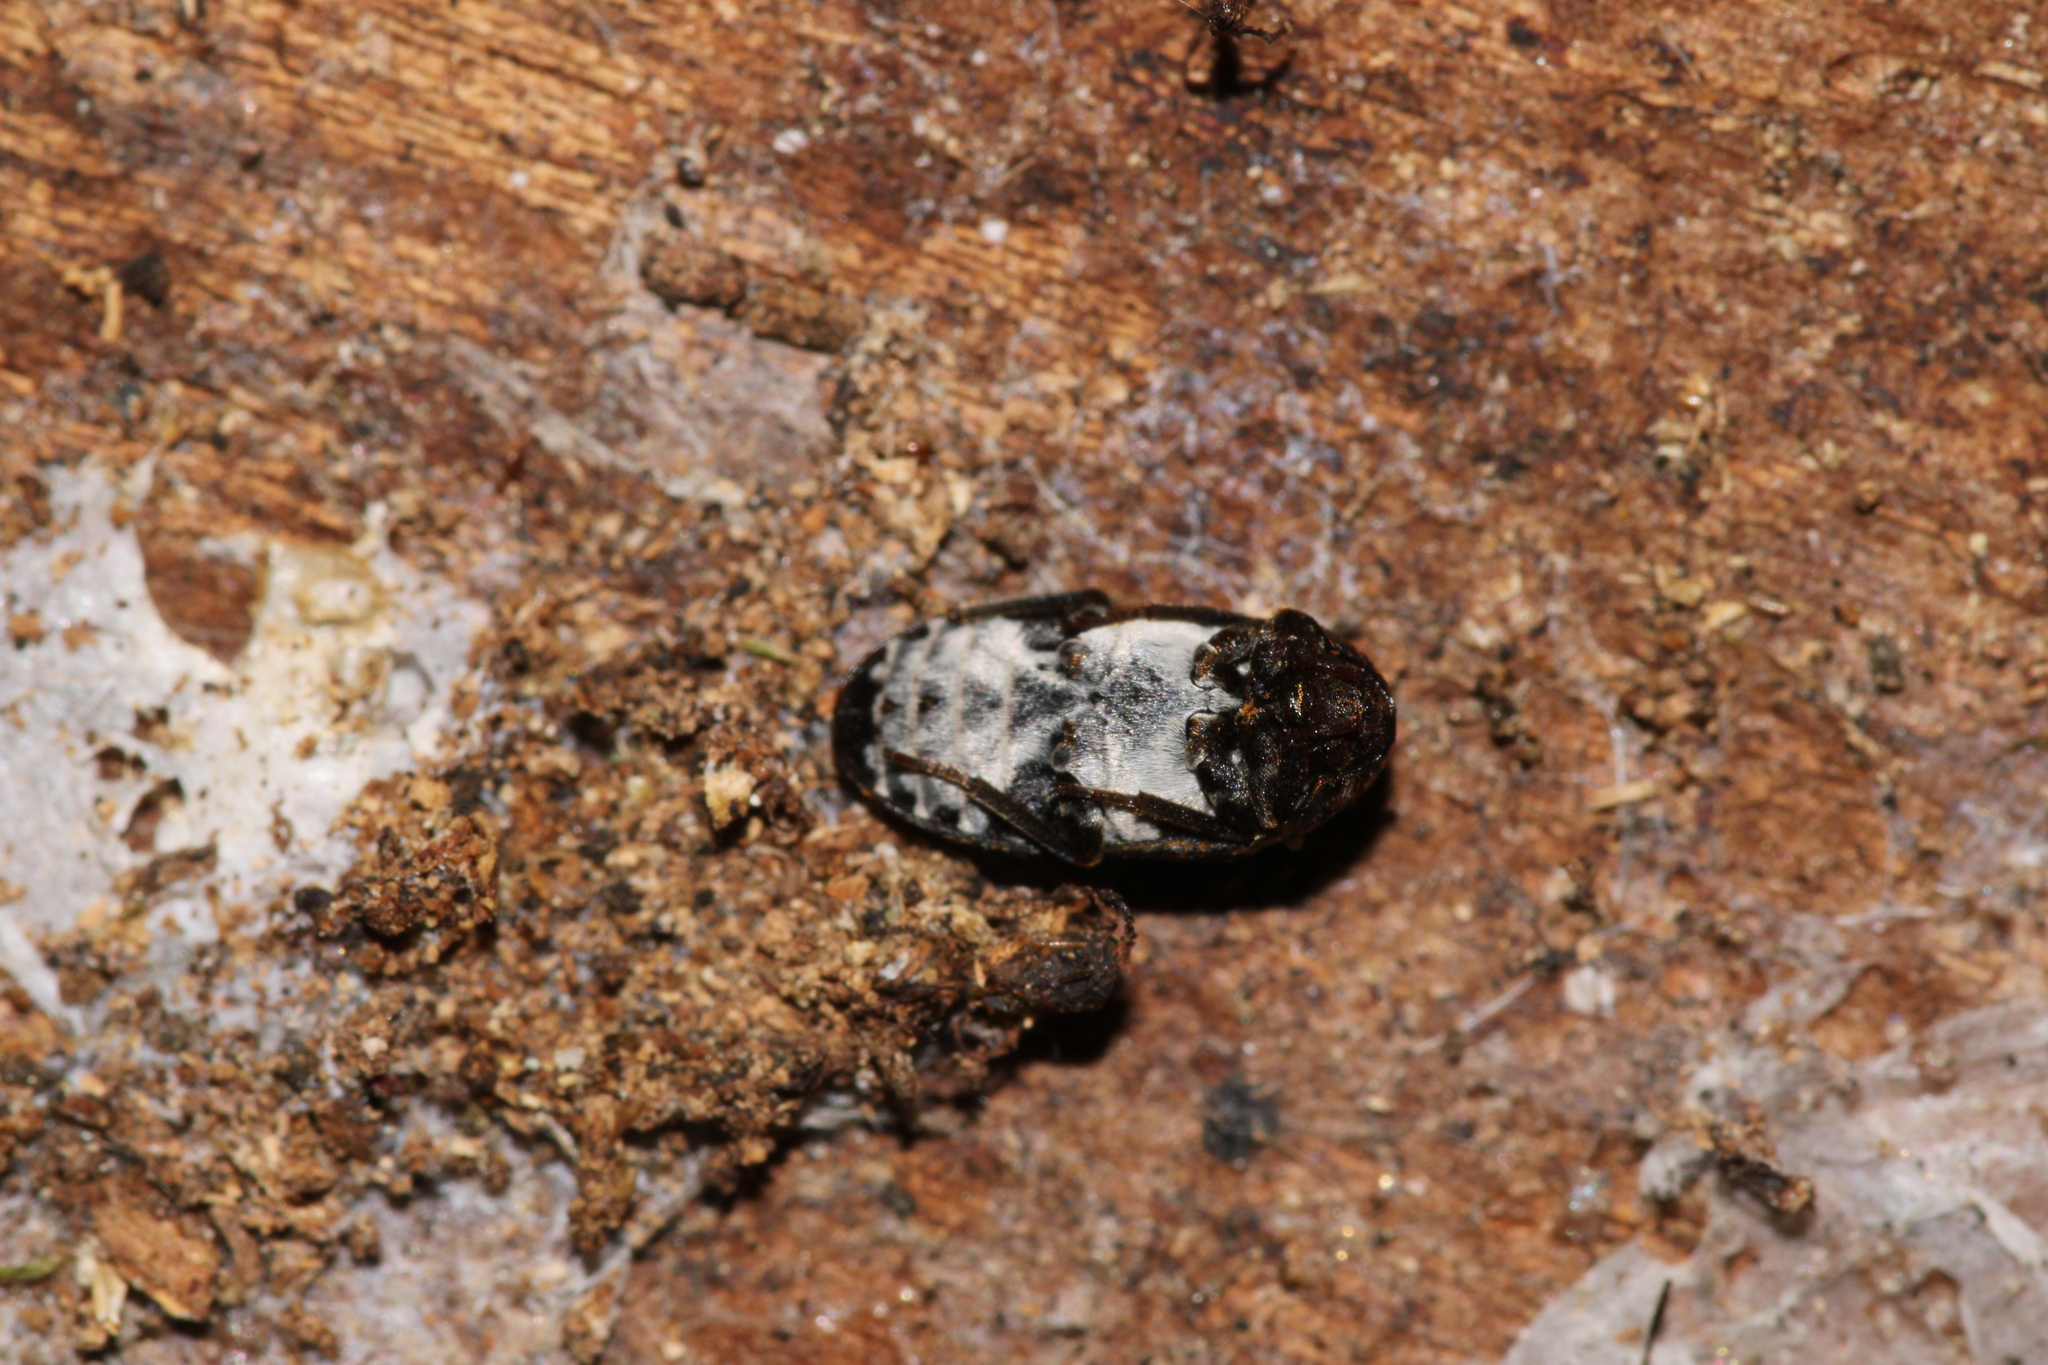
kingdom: Animalia
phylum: Arthropoda
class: Insecta
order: Coleoptera
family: Dermestidae
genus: Dermestes
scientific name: Dermestes laniarius
